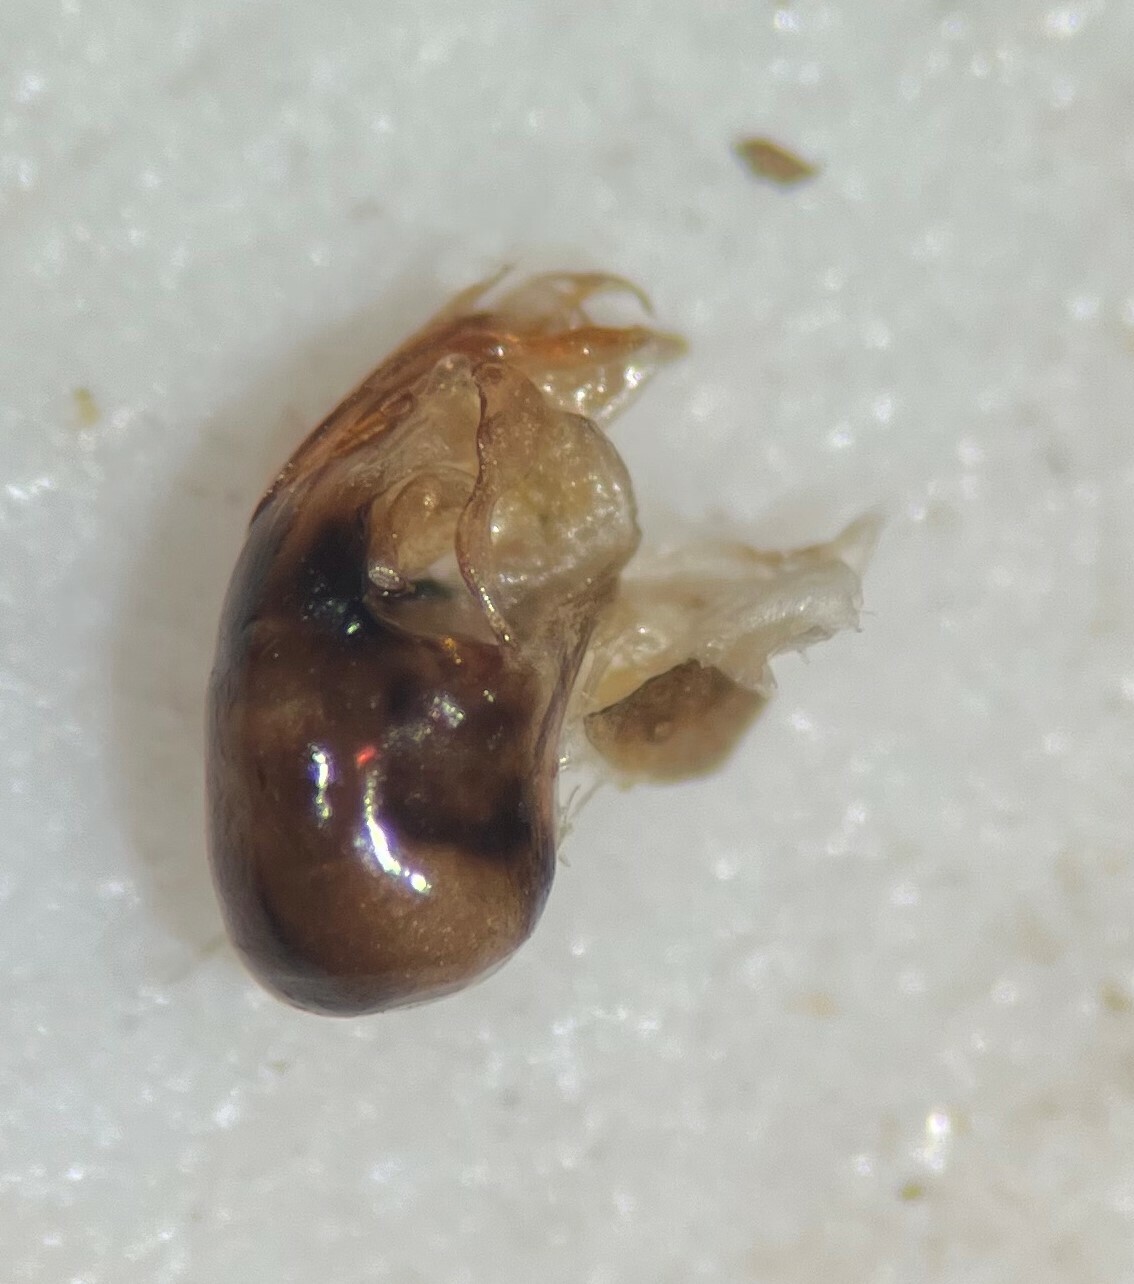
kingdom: Animalia
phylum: Arthropoda
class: Insecta
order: Hemiptera
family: Corixidae
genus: Hesperocorixa
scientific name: Hesperocorixa minorella
